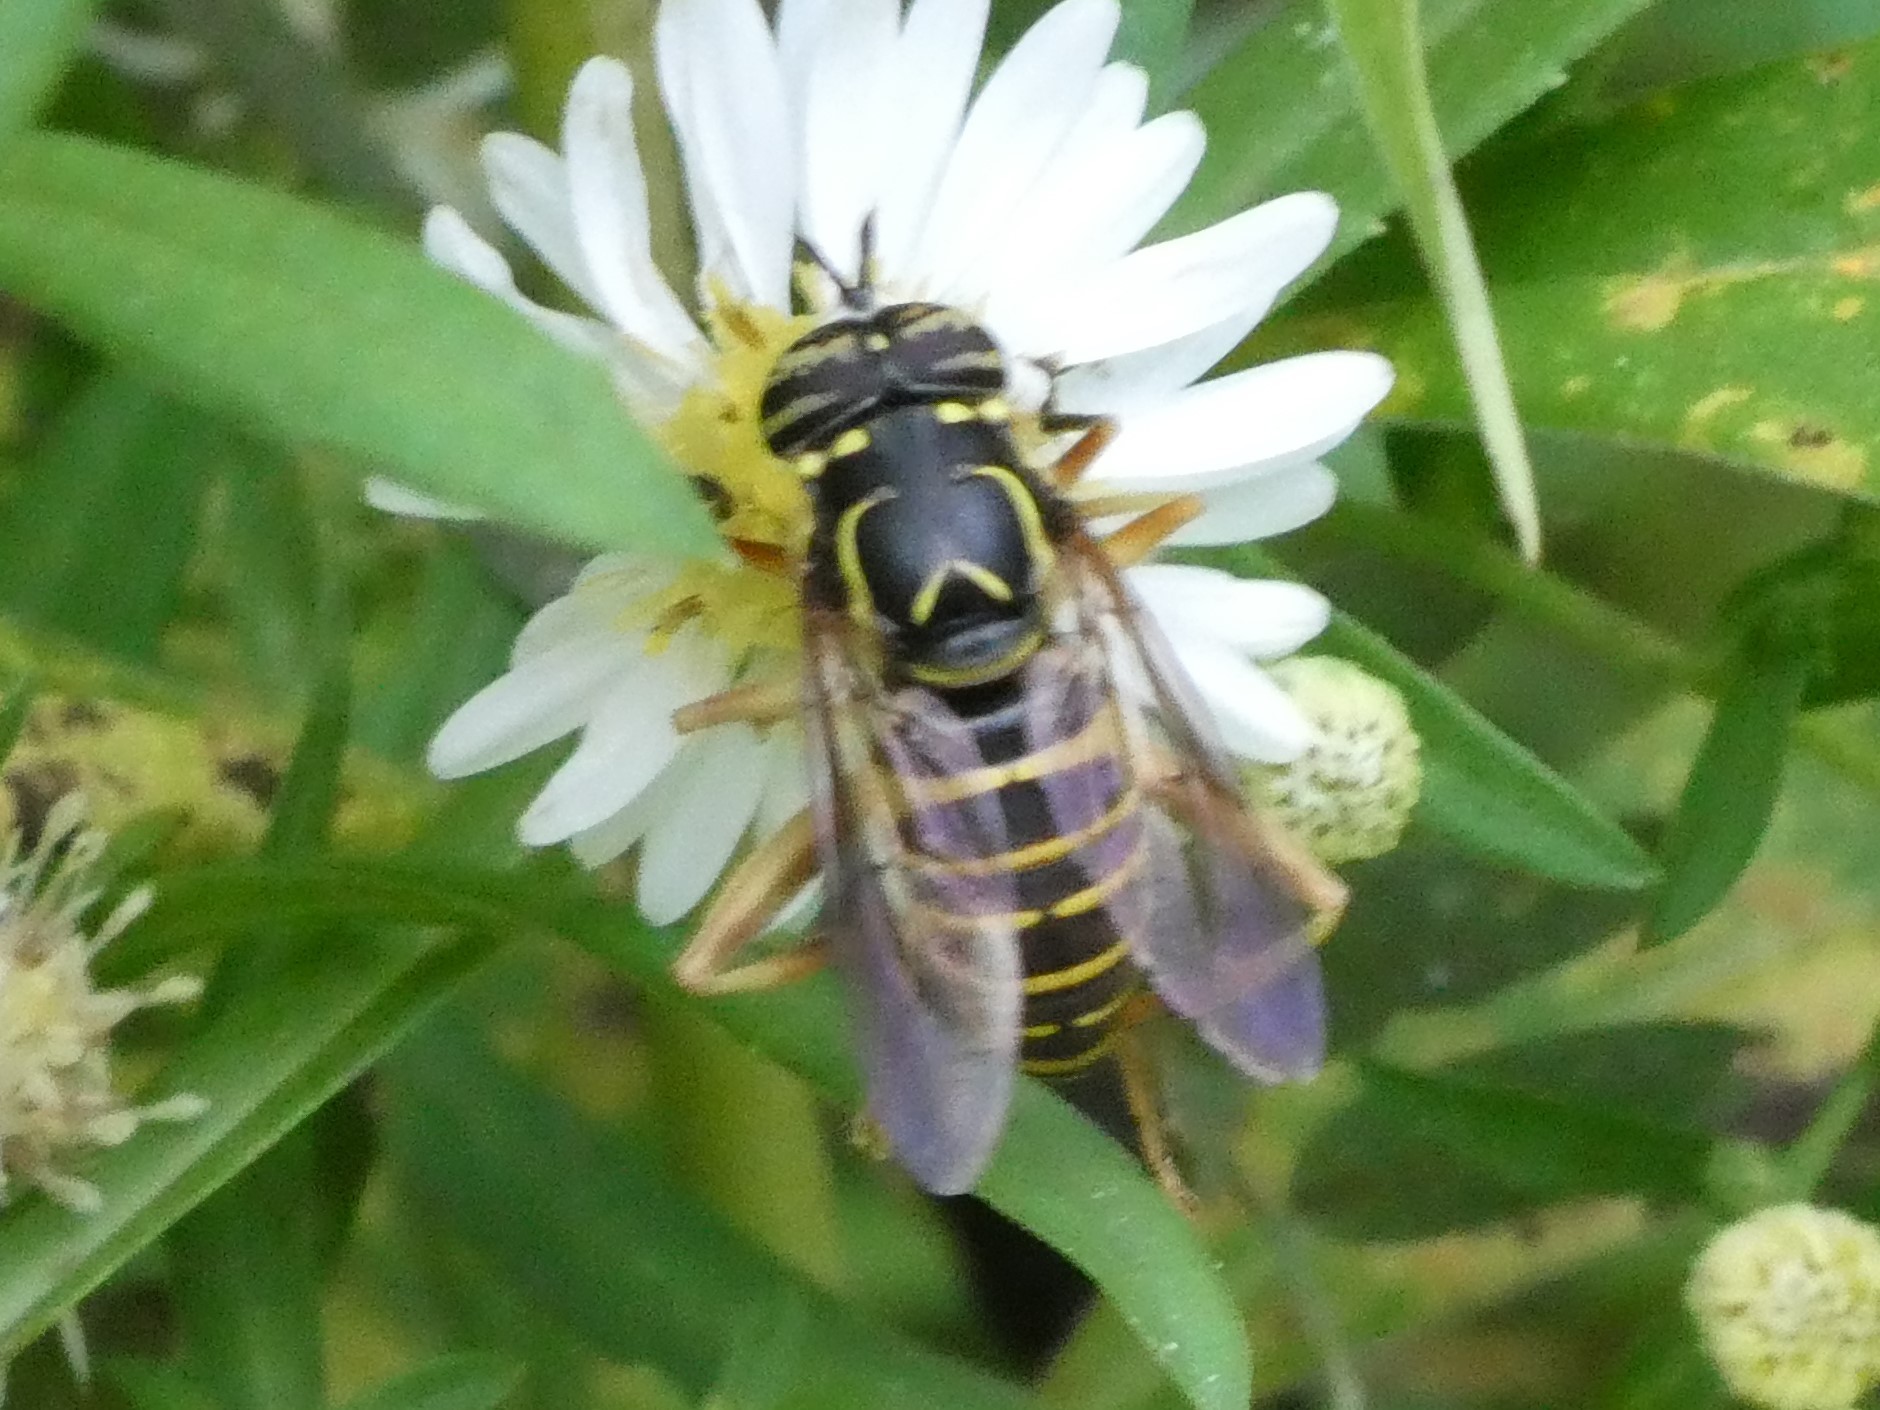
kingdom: Animalia
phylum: Arthropoda
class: Insecta
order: Diptera
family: Syrphidae
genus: Spilomyia
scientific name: Spilomyia longicornis
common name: Eastern hornet fly
